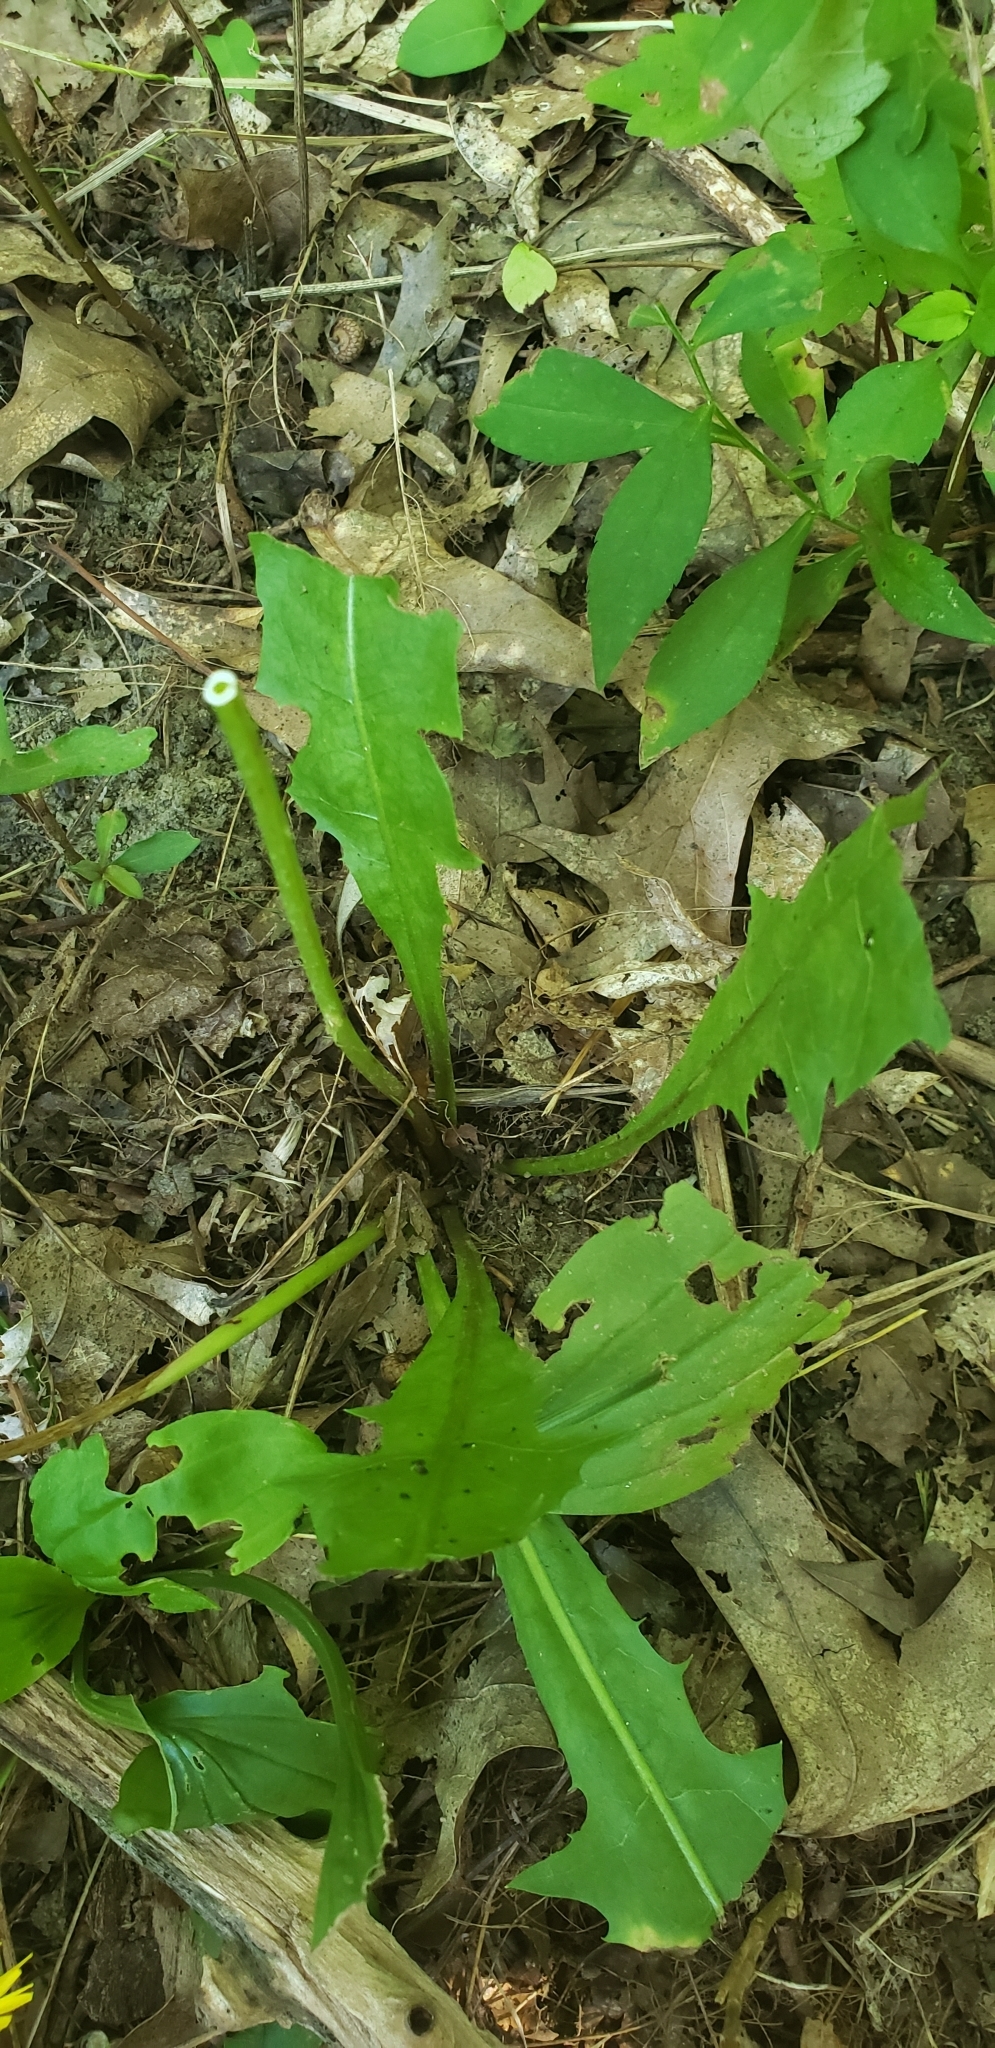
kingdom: Plantae
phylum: Tracheophyta
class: Magnoliopsida
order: Asterales
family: Asteraceae
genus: Taraxacum
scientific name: Taraxacum officinale
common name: Common dandelion
